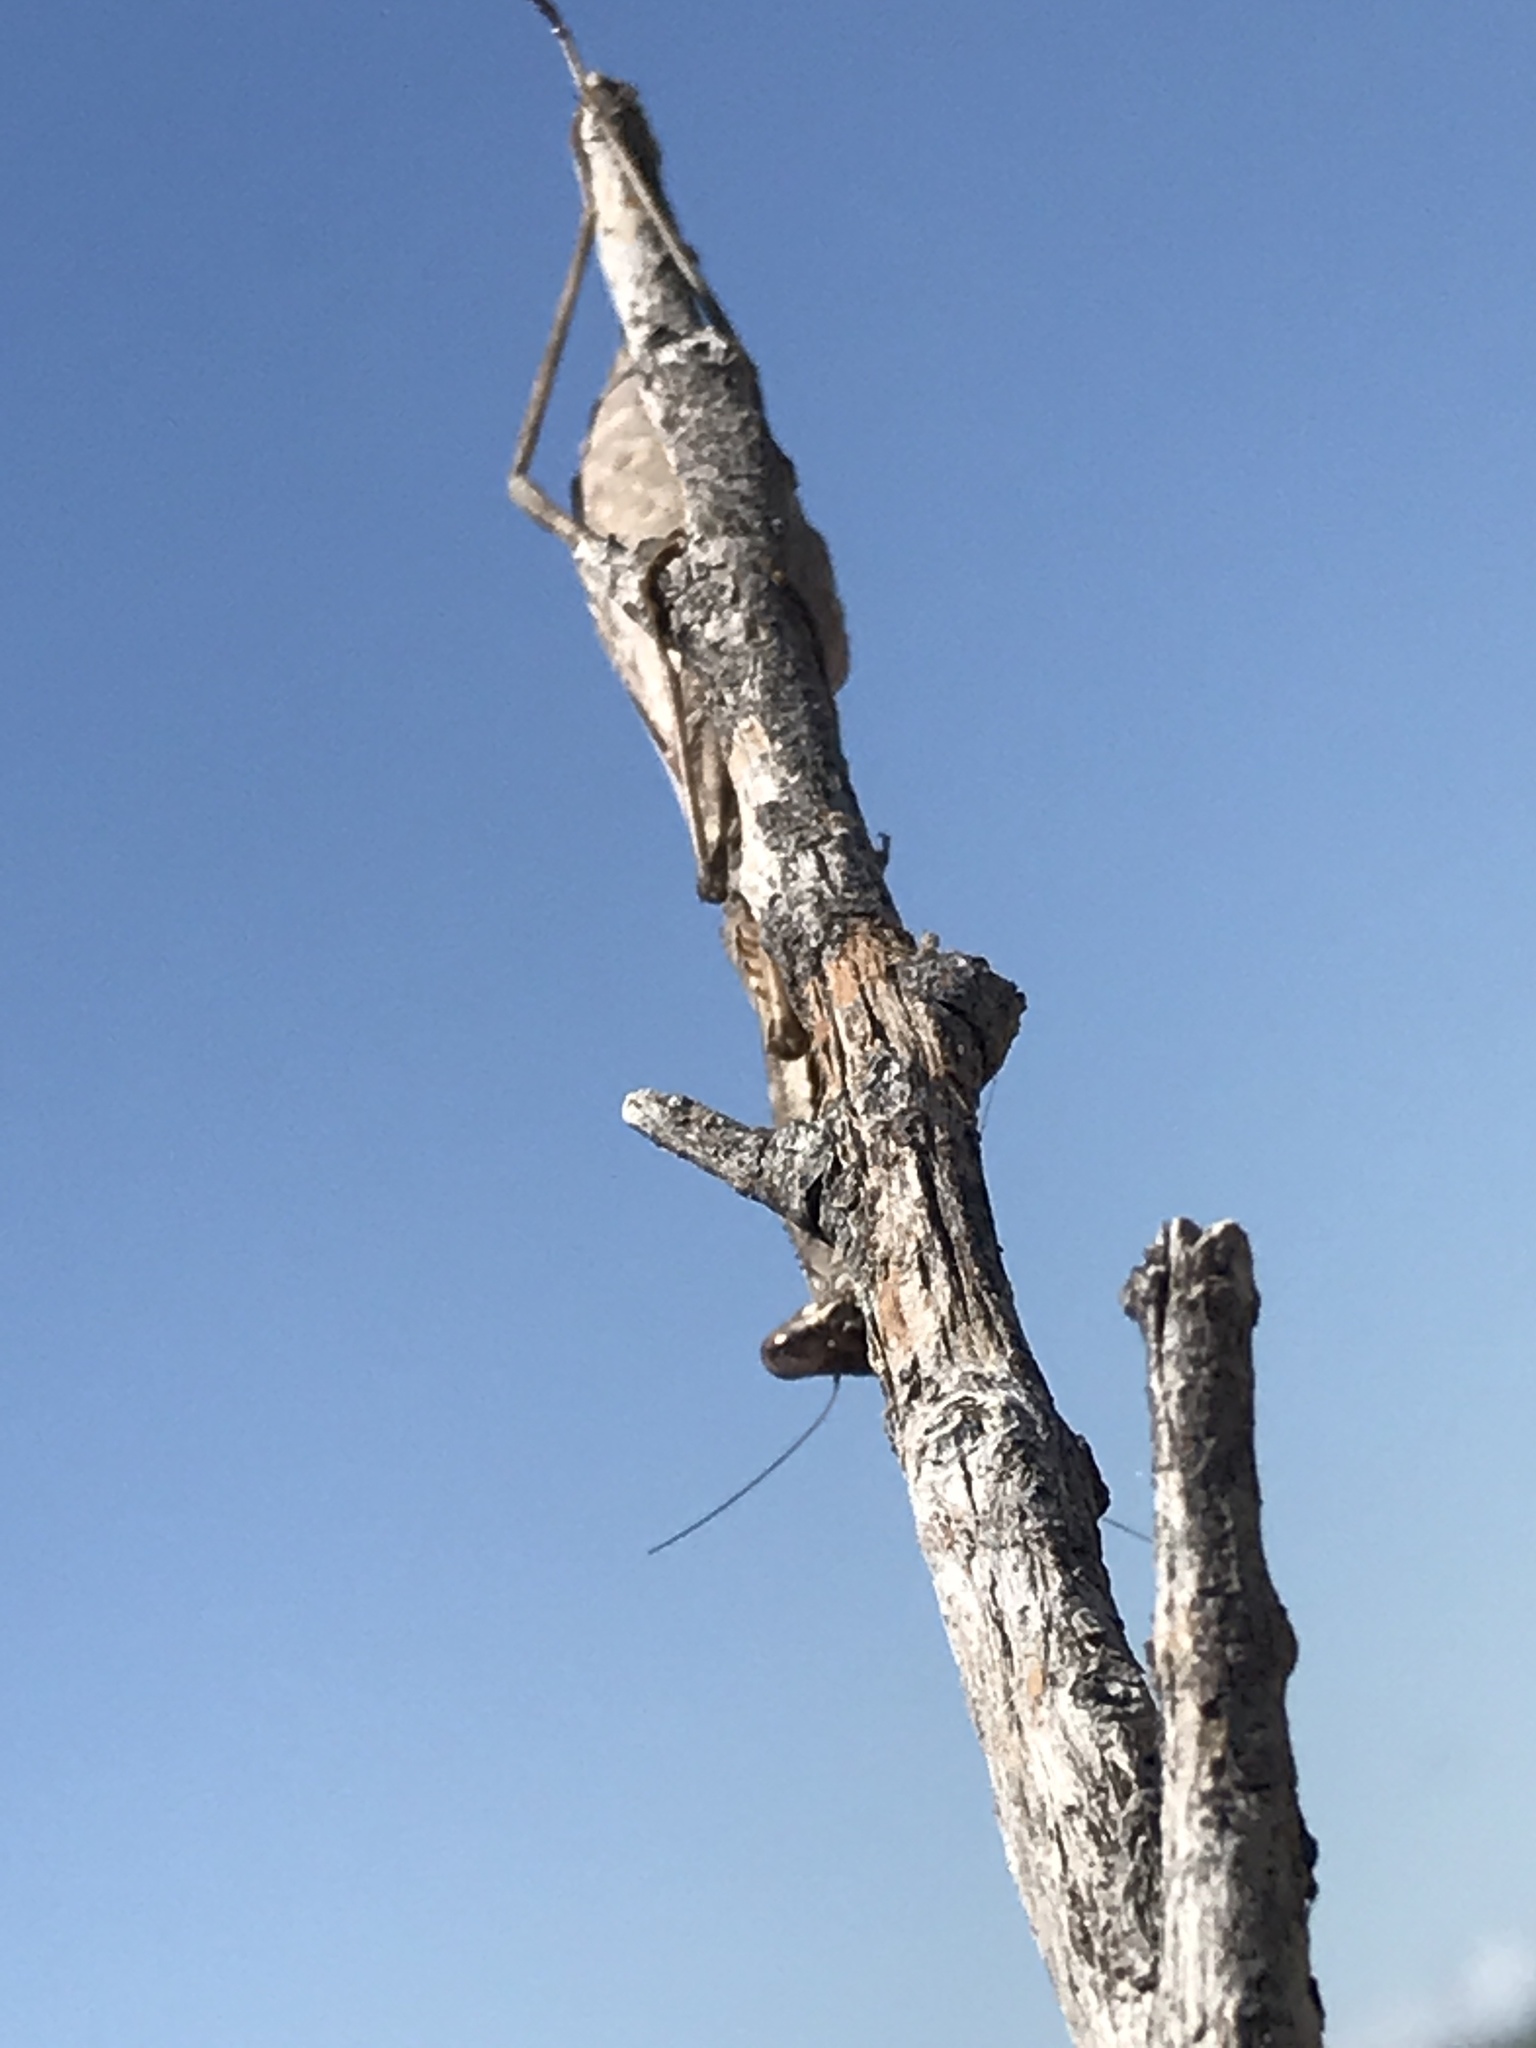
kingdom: Animalia
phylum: Arthropoda
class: Insecta
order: Mantodea
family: Mantidae
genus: Stagmomantis
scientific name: Stagmomantis carolina
